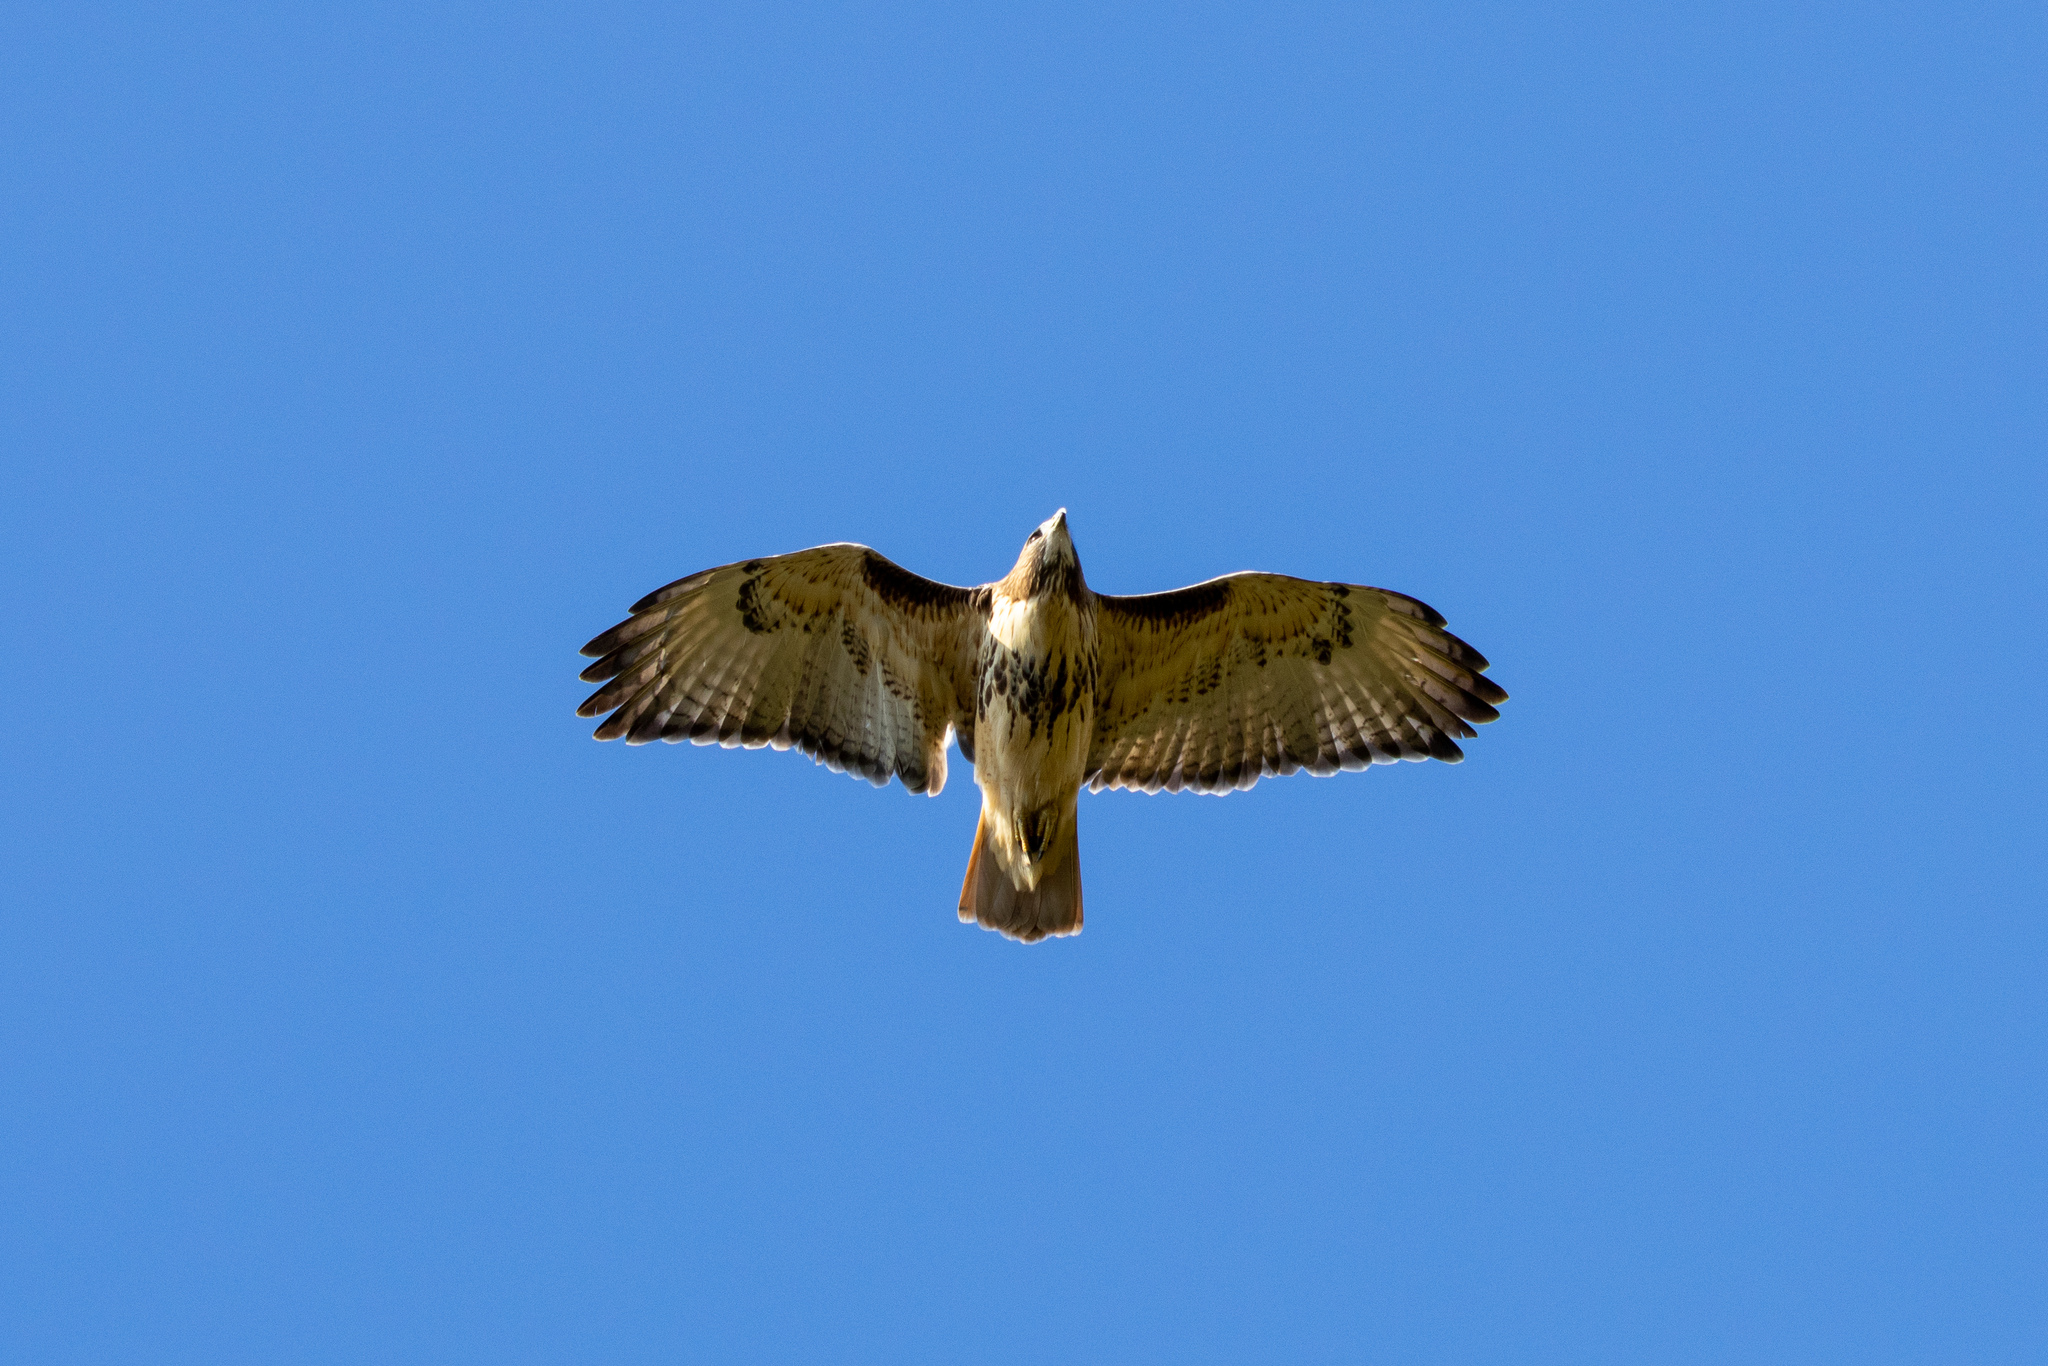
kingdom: Animalia
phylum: Chordata
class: Aves
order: Accipitriformes
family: Accipitridae
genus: Buteo
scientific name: Buteo jamaicensis
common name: Red-tailed hawk
